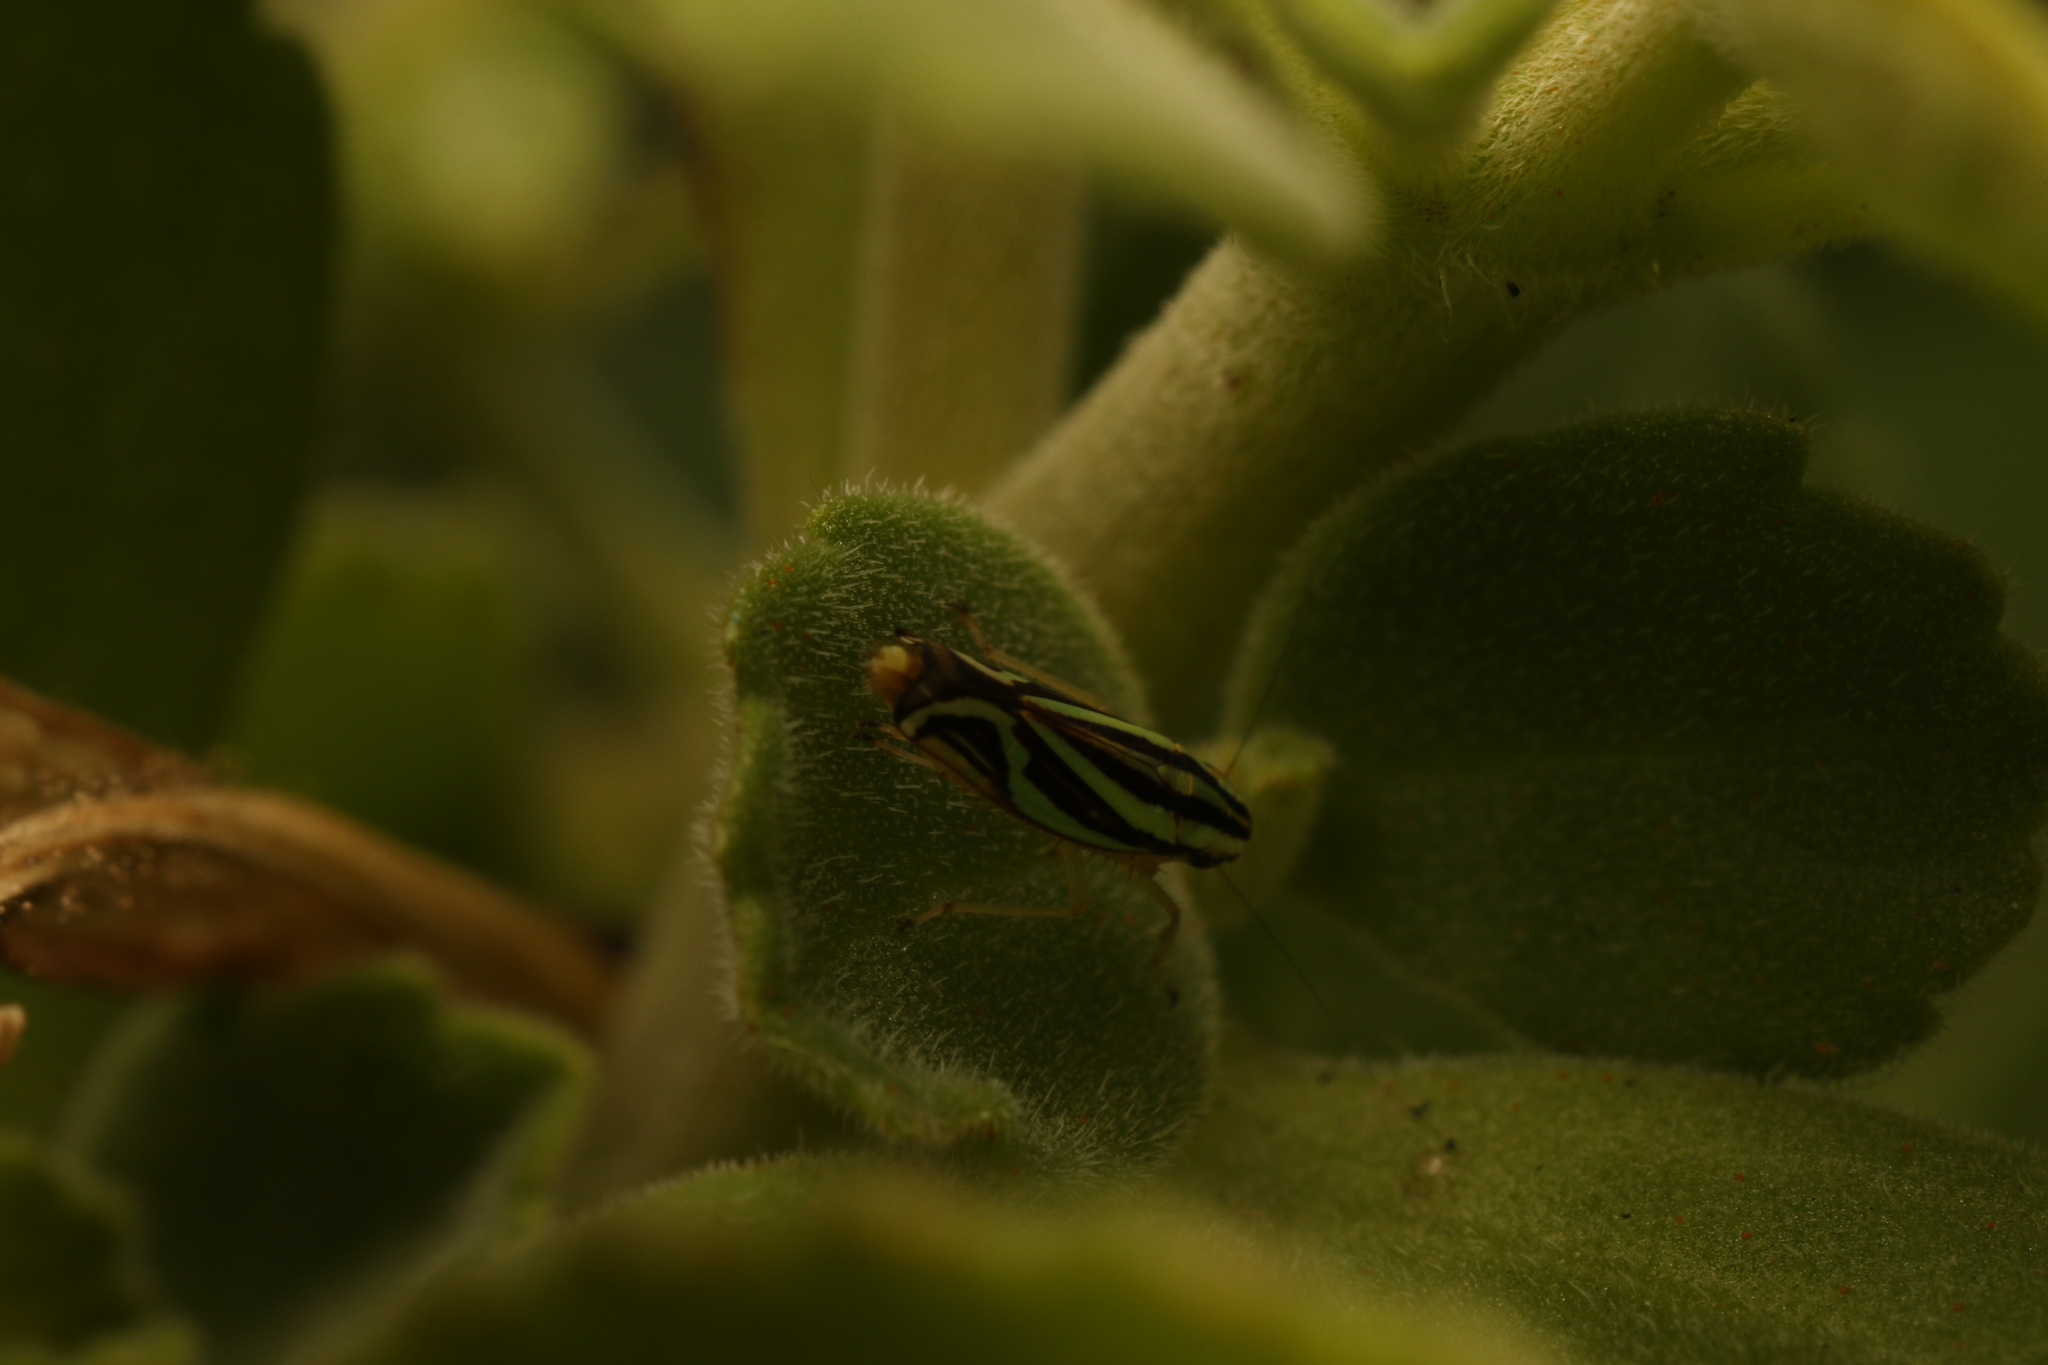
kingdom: Animalia
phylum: Arthropoda
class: Insecta
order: Hemiptera
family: Cicadellidae
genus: Sibovia
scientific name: Sibovia sagata
